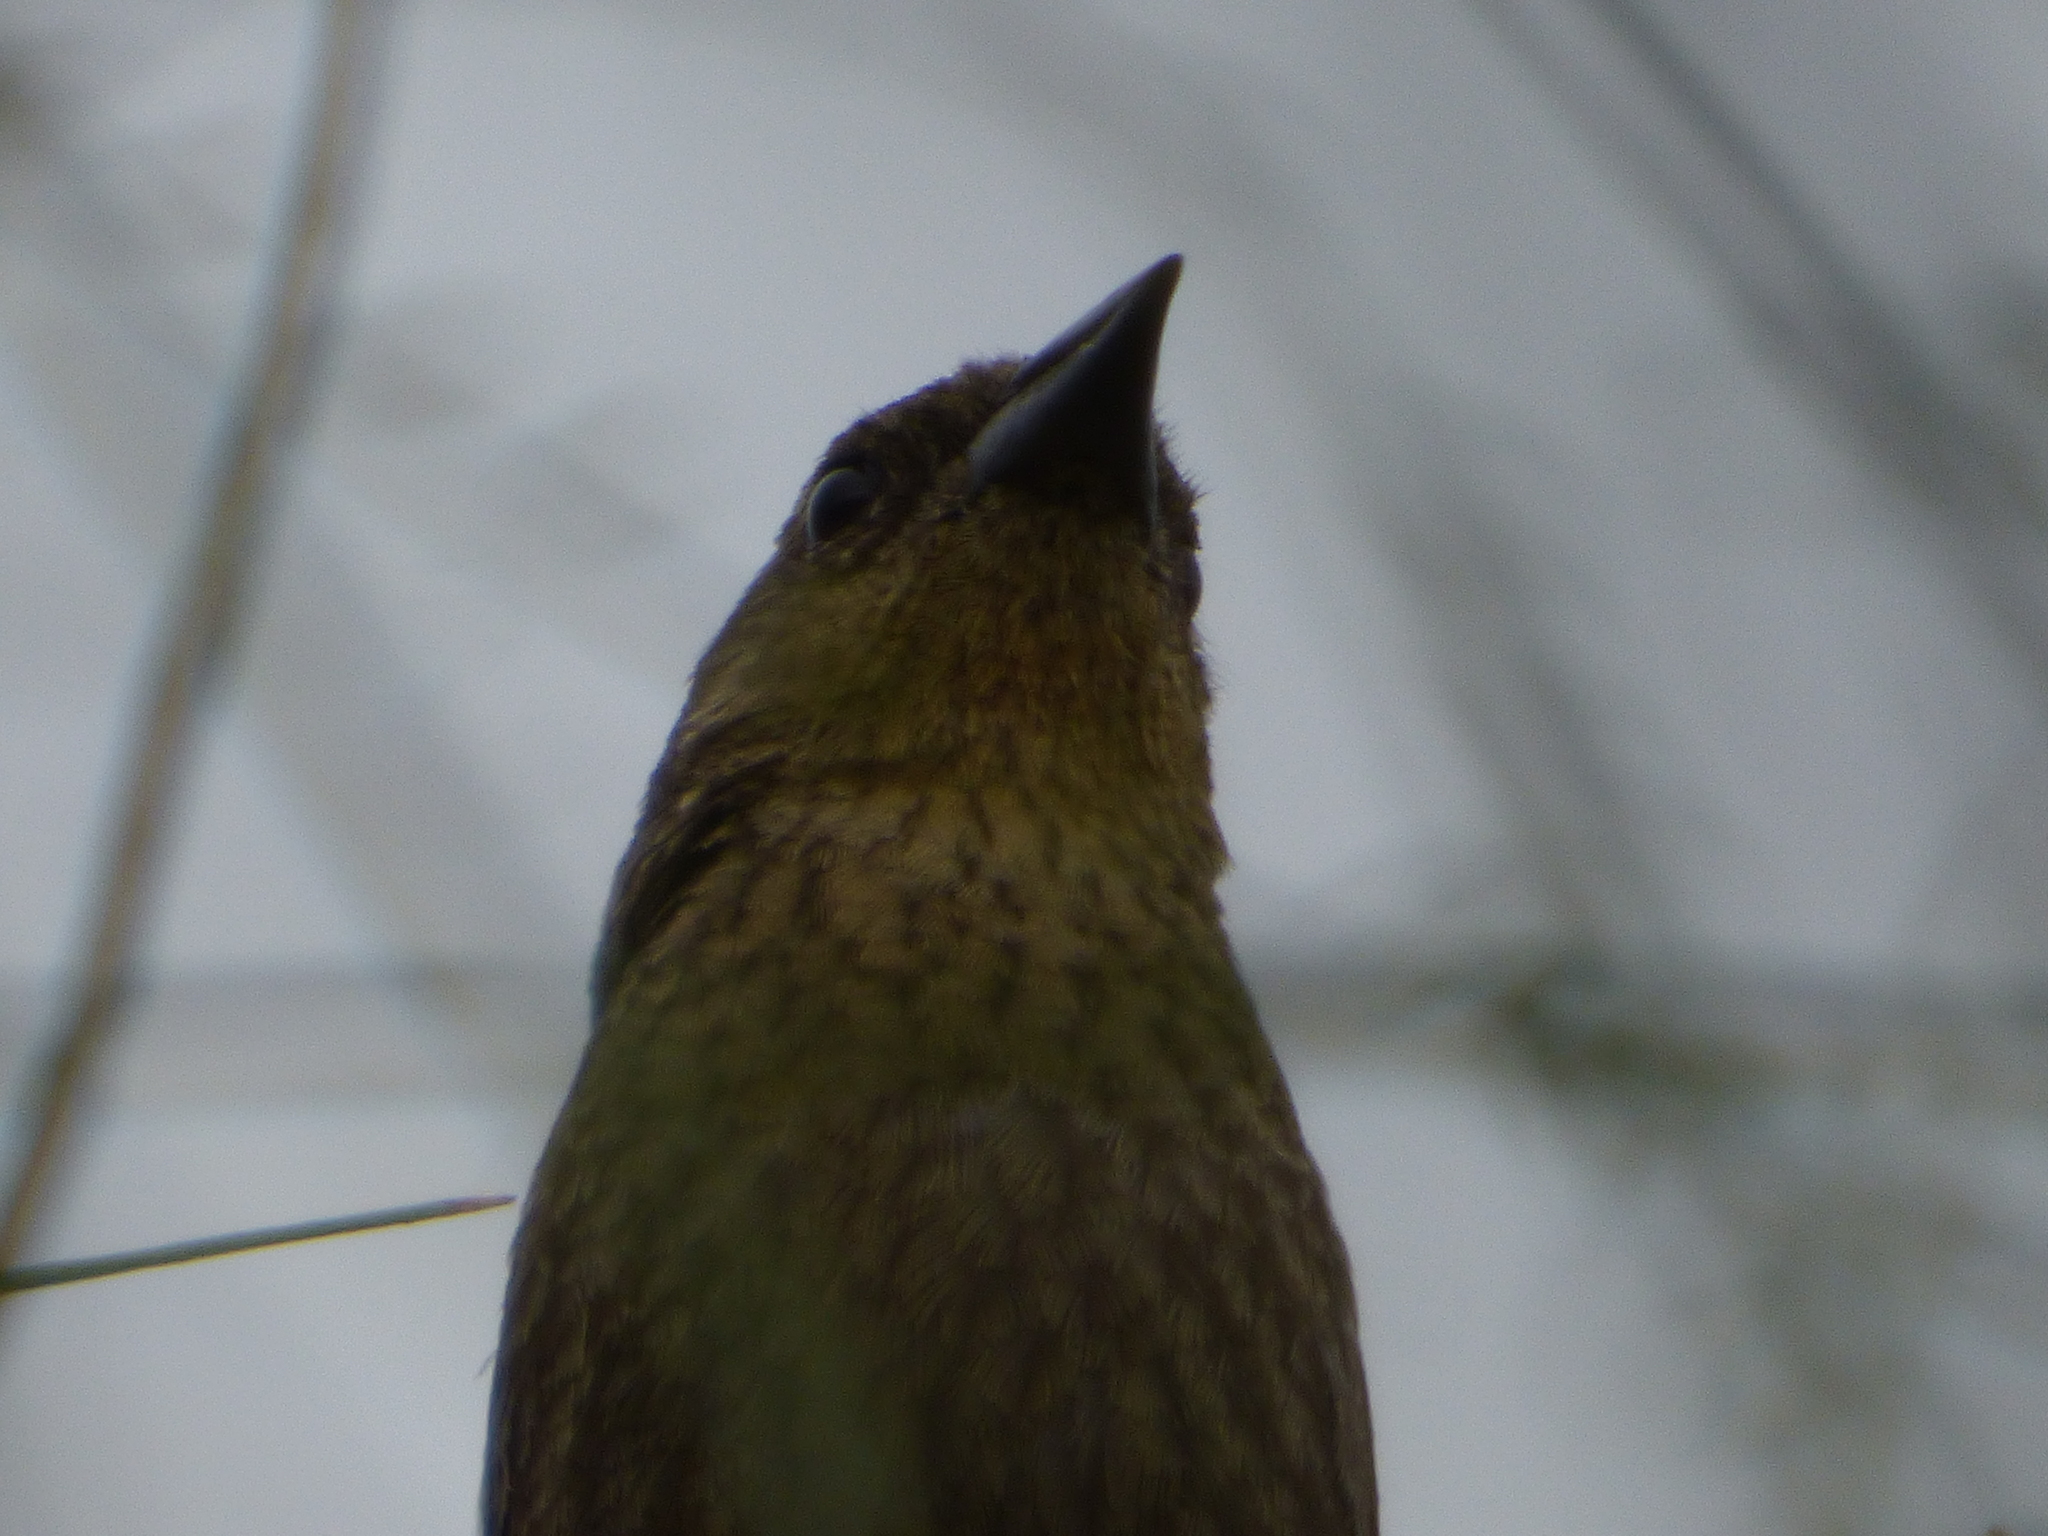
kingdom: Animalia
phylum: Chordata
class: Aves
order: Passeriformes
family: Icteridae
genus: Chrysomus
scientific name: Chrysomus ruficapillus
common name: Chestnut-capped blackbird
